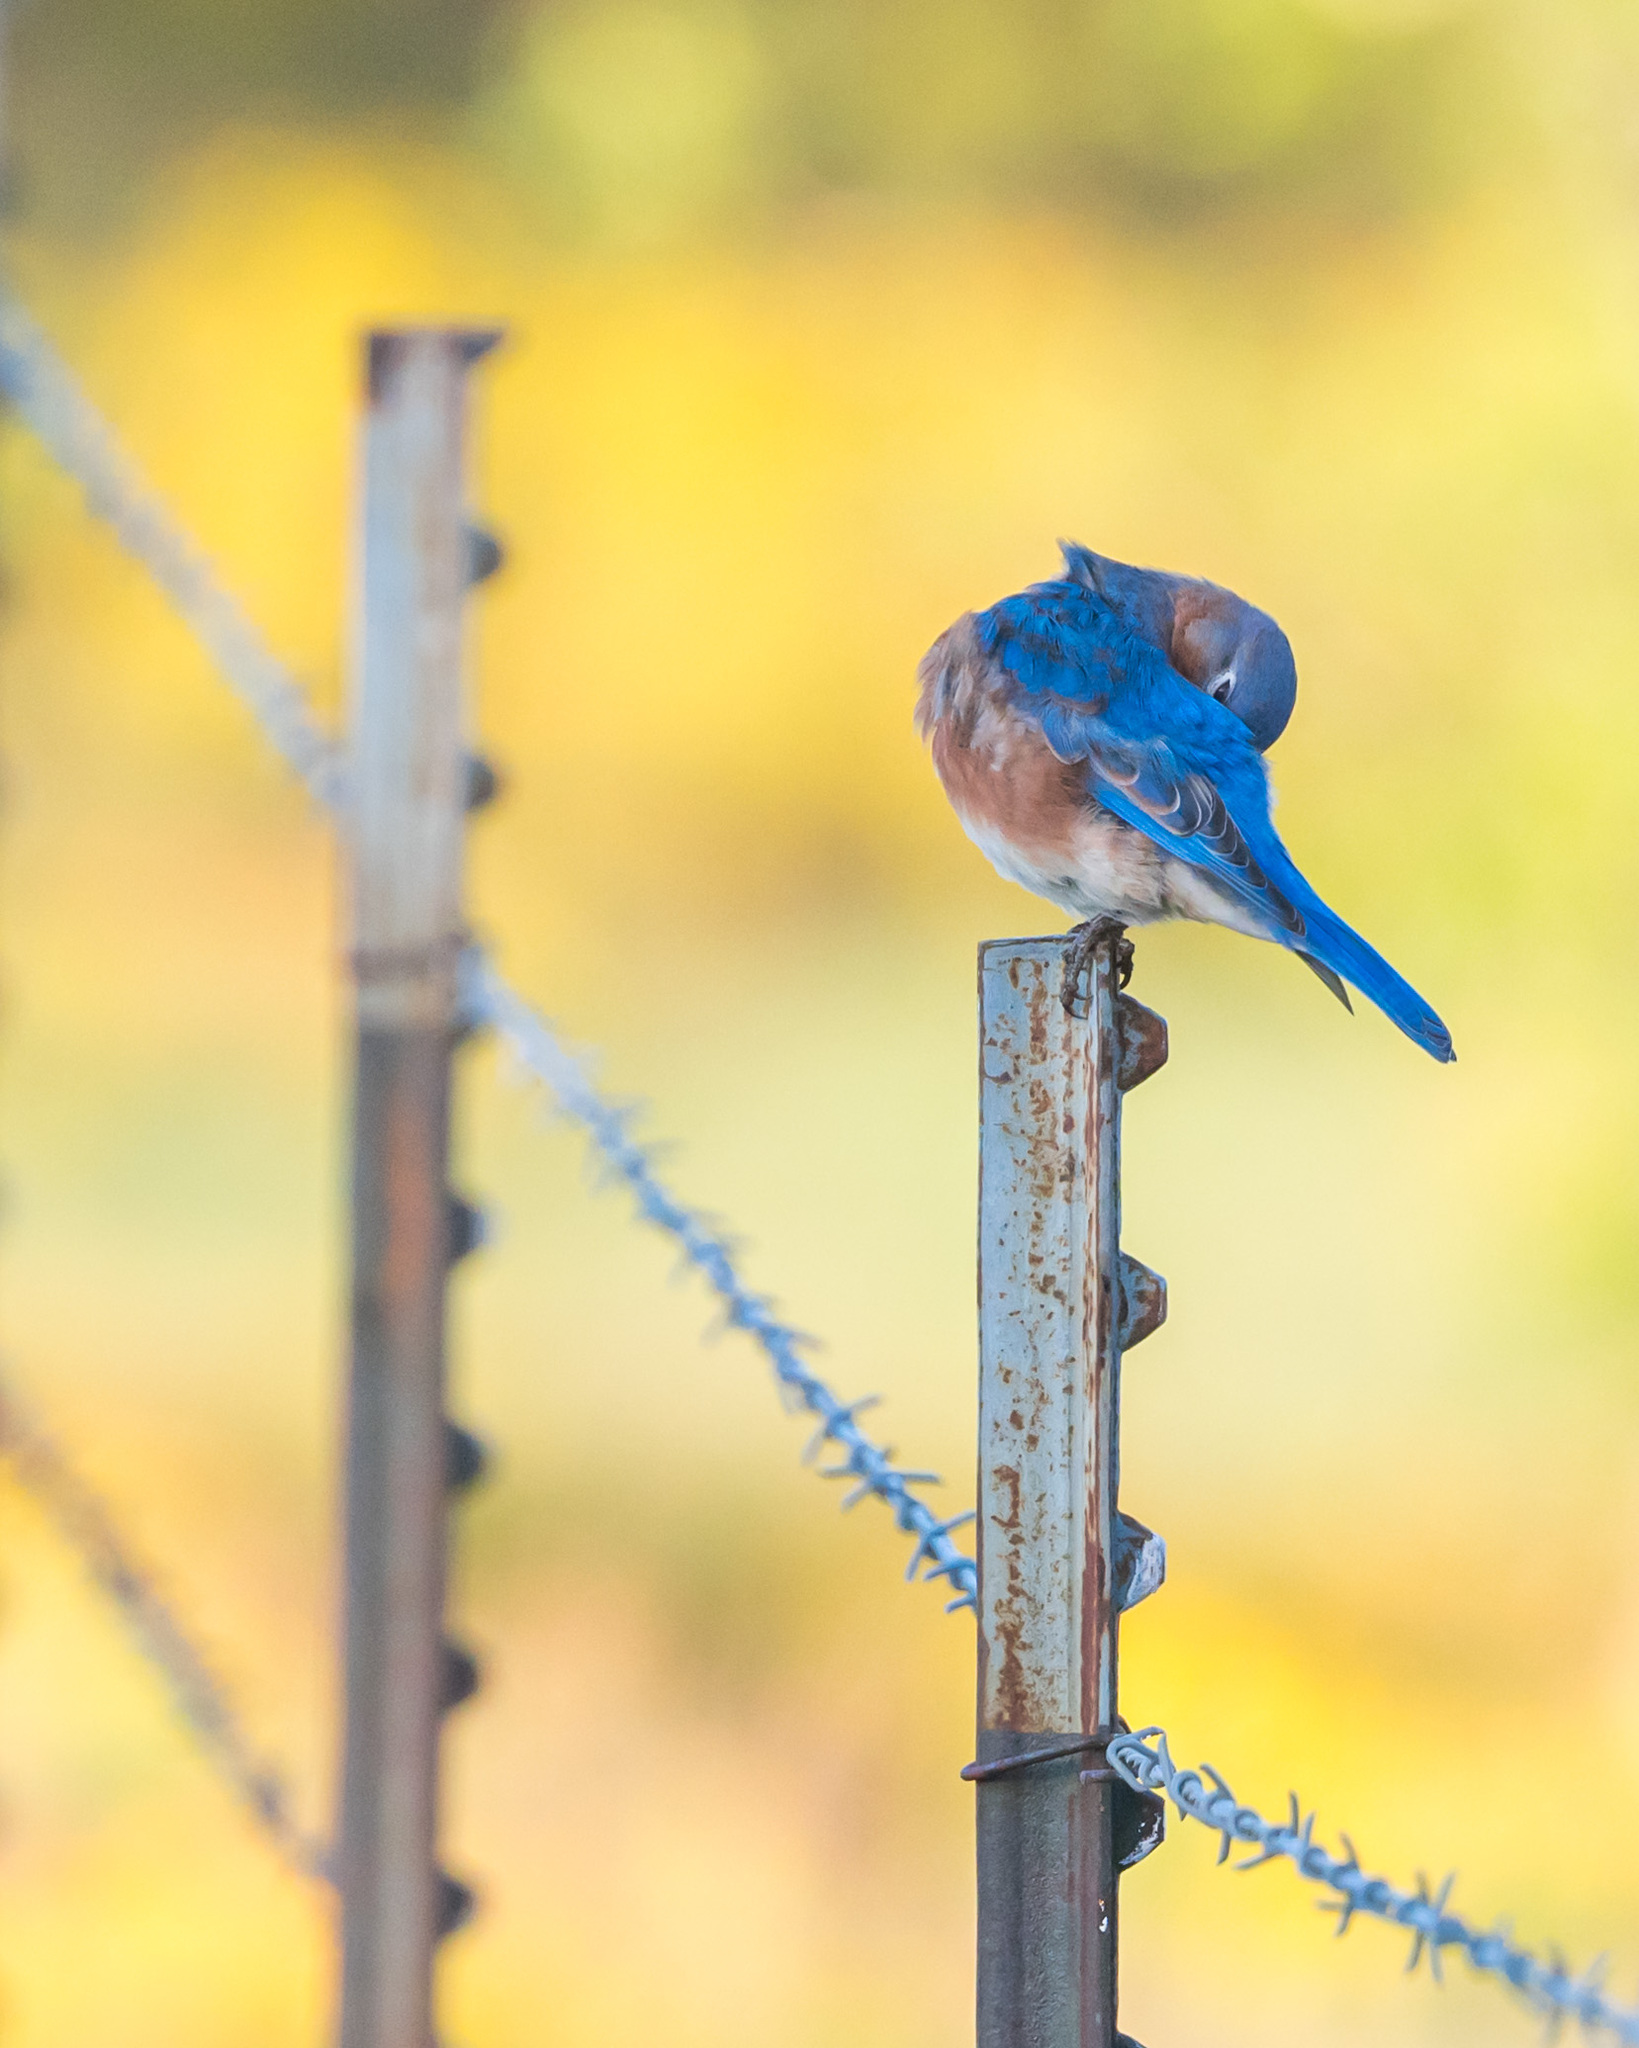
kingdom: Animalia
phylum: Chordata
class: Aves
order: Passeriformes
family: Turdidae
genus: Sialia
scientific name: Sialia sialis
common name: Eastern bluebird
